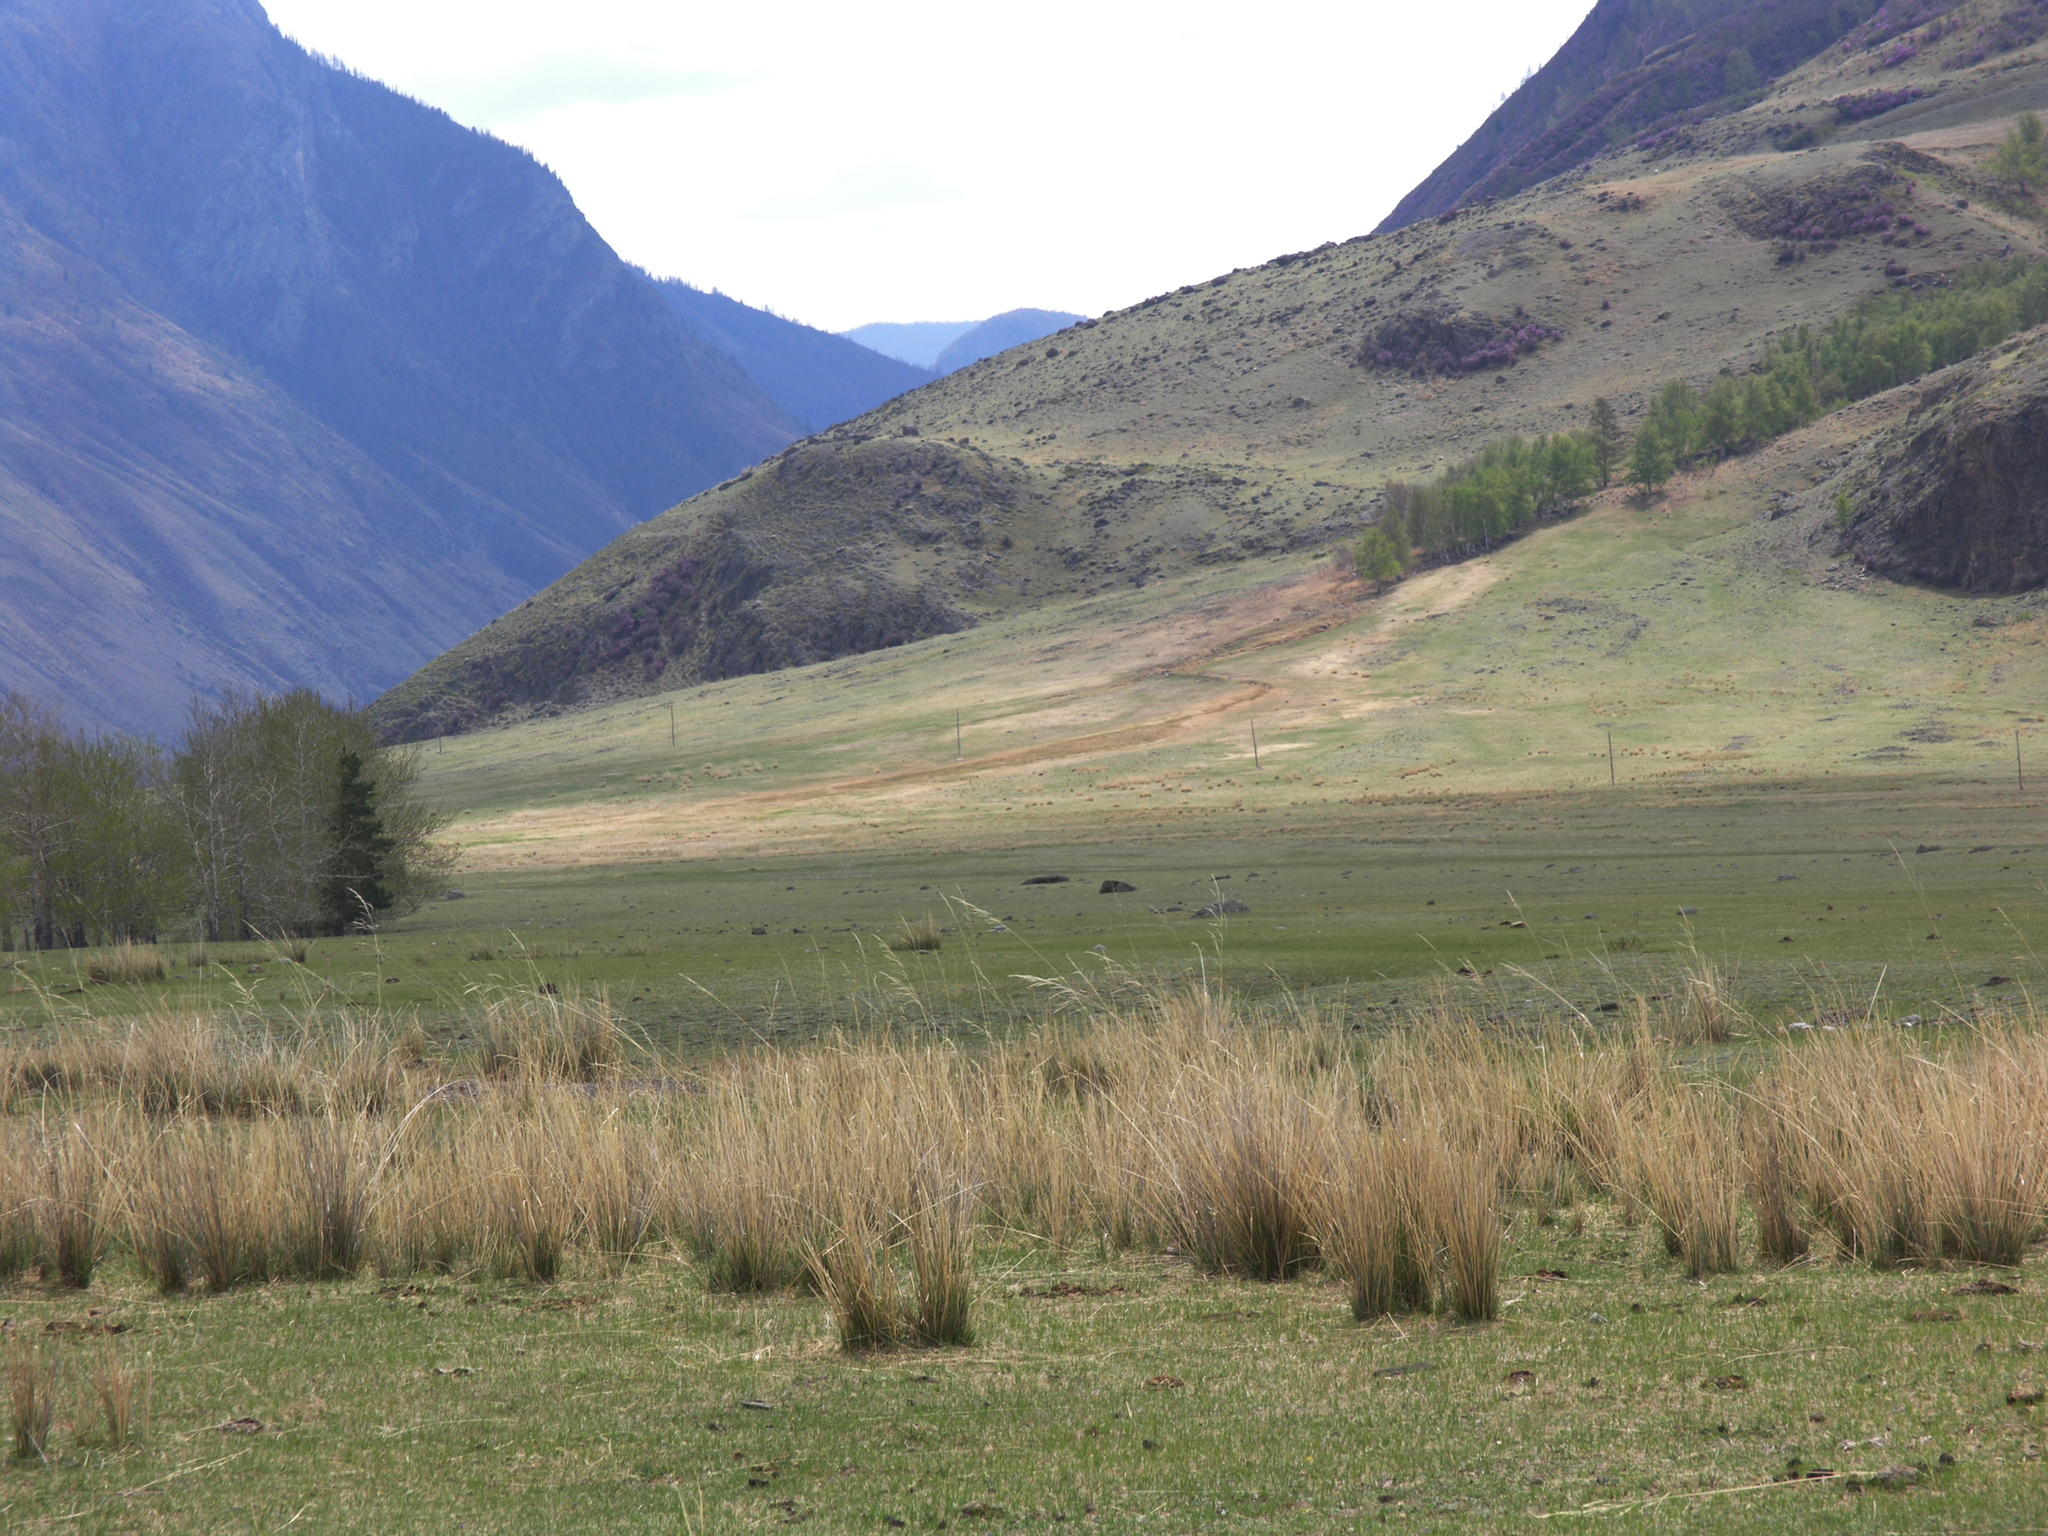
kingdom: Plantae
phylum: Tracheophyta
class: Liliopsida
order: Poales
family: Poaceae
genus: Neotrinia
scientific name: Neotrinia splendens
